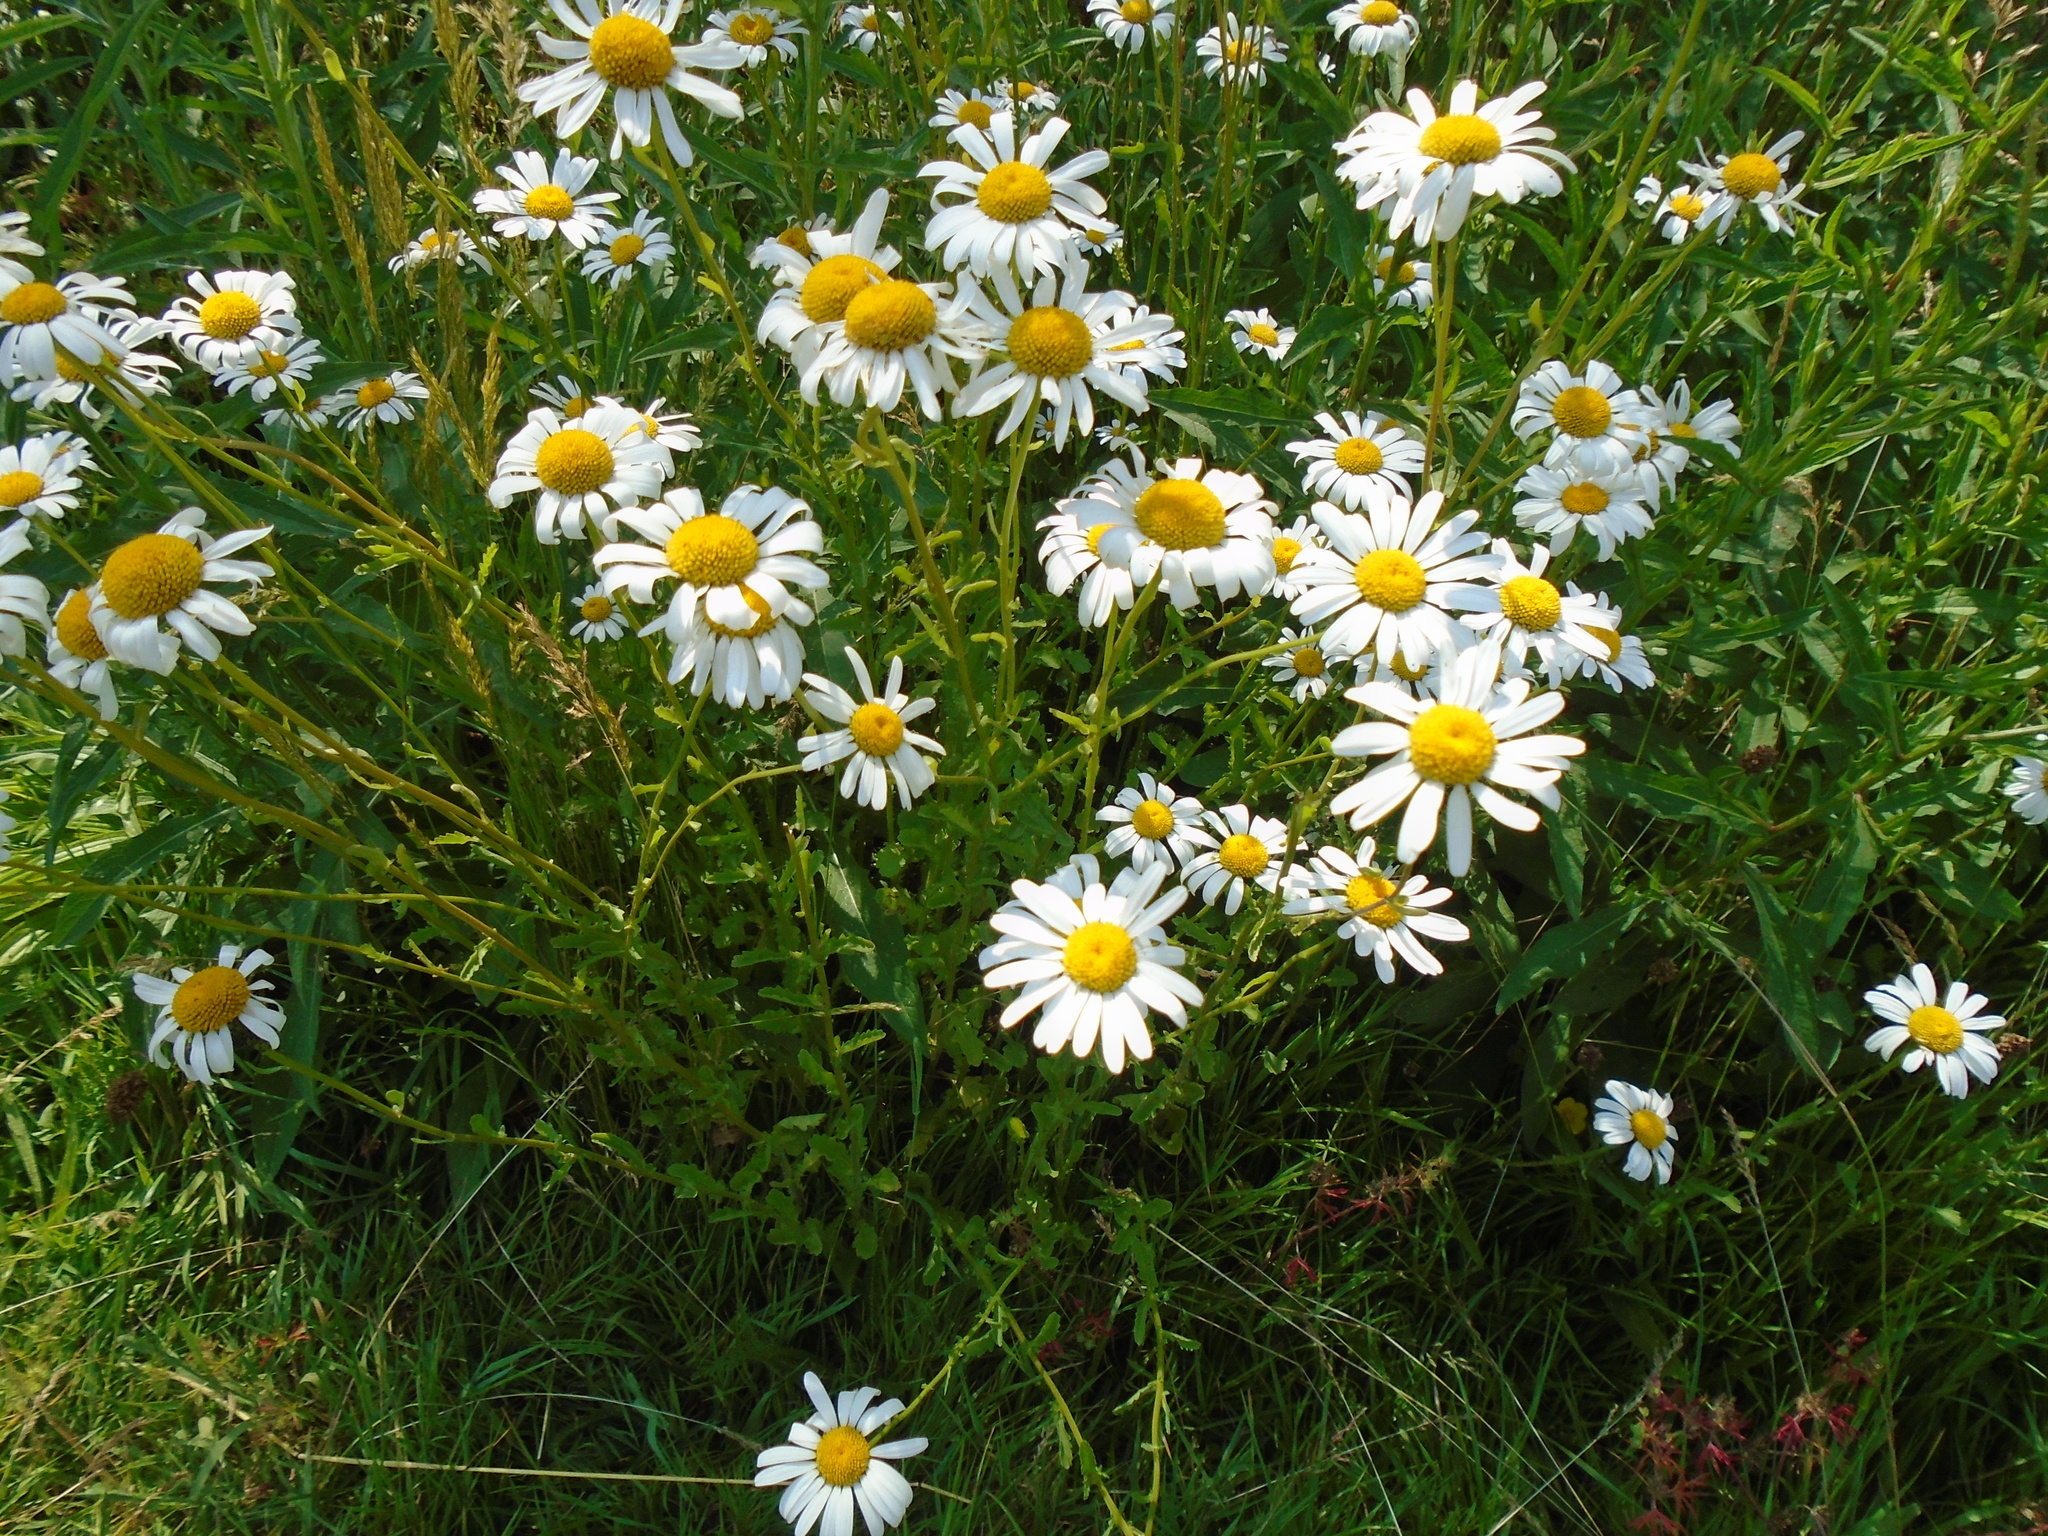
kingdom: Plantae
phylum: Tracheophyta
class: Magnoliopsida
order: Asterales
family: Asteraceae
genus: Leucanthemum
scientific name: Leucanthemum vulgare
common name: Oxeye daisy
